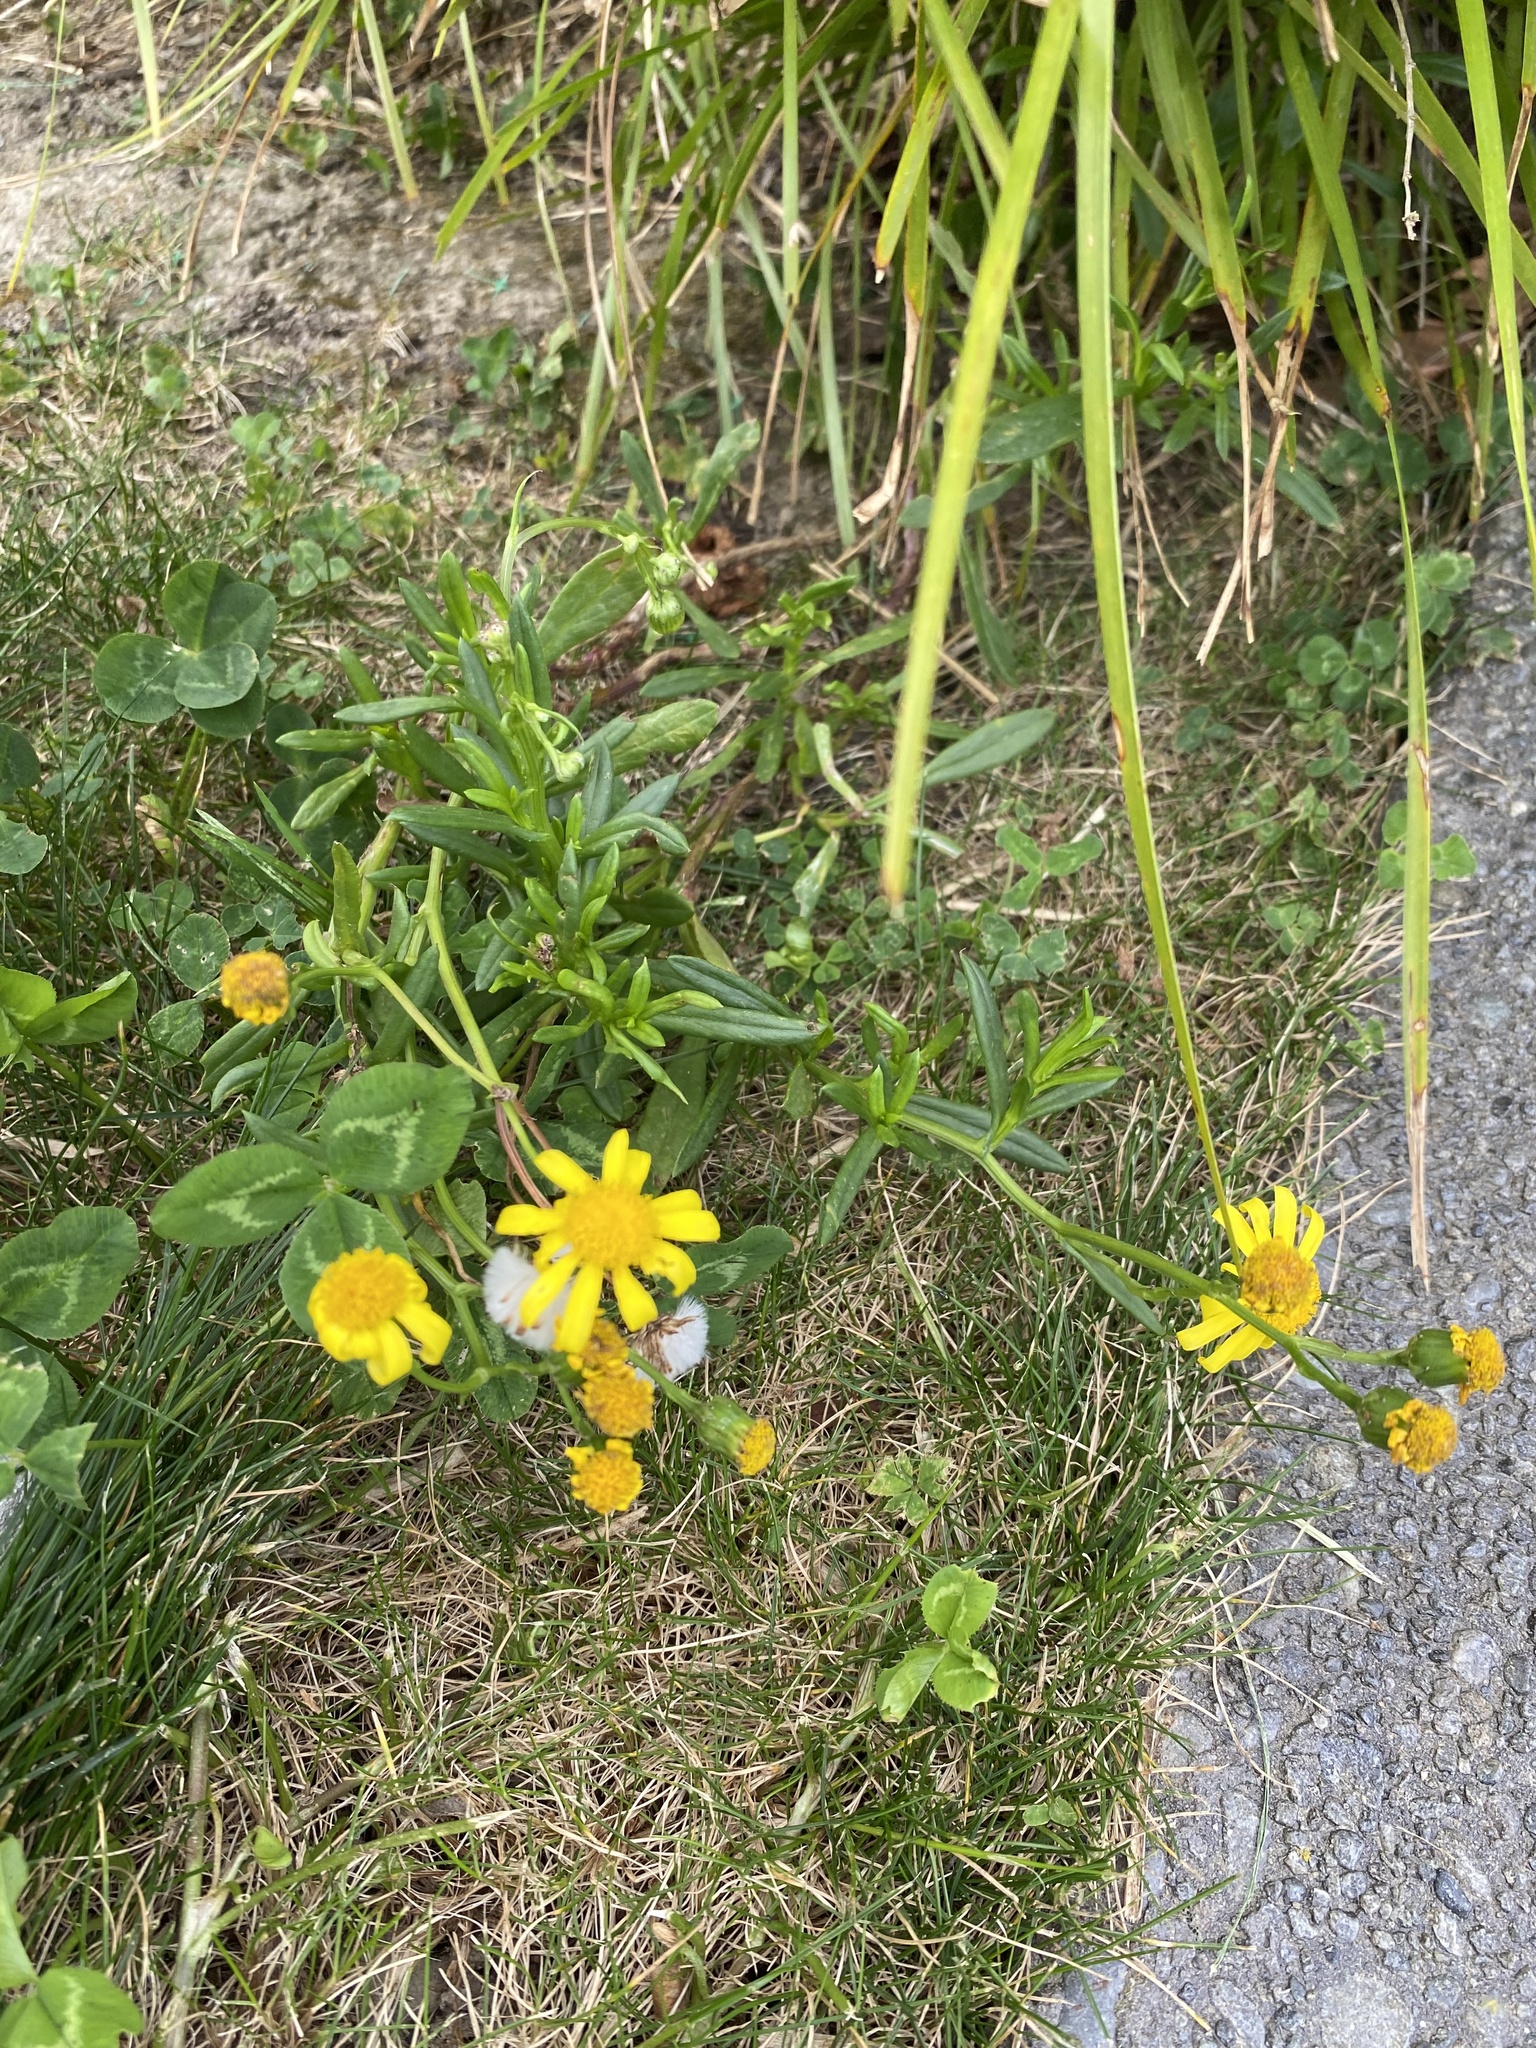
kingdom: Plantae
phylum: Tracheophyta
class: Magnoliopsida
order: Asterales
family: Asteraceae
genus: Senecio
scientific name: Senecio skirrhodon
